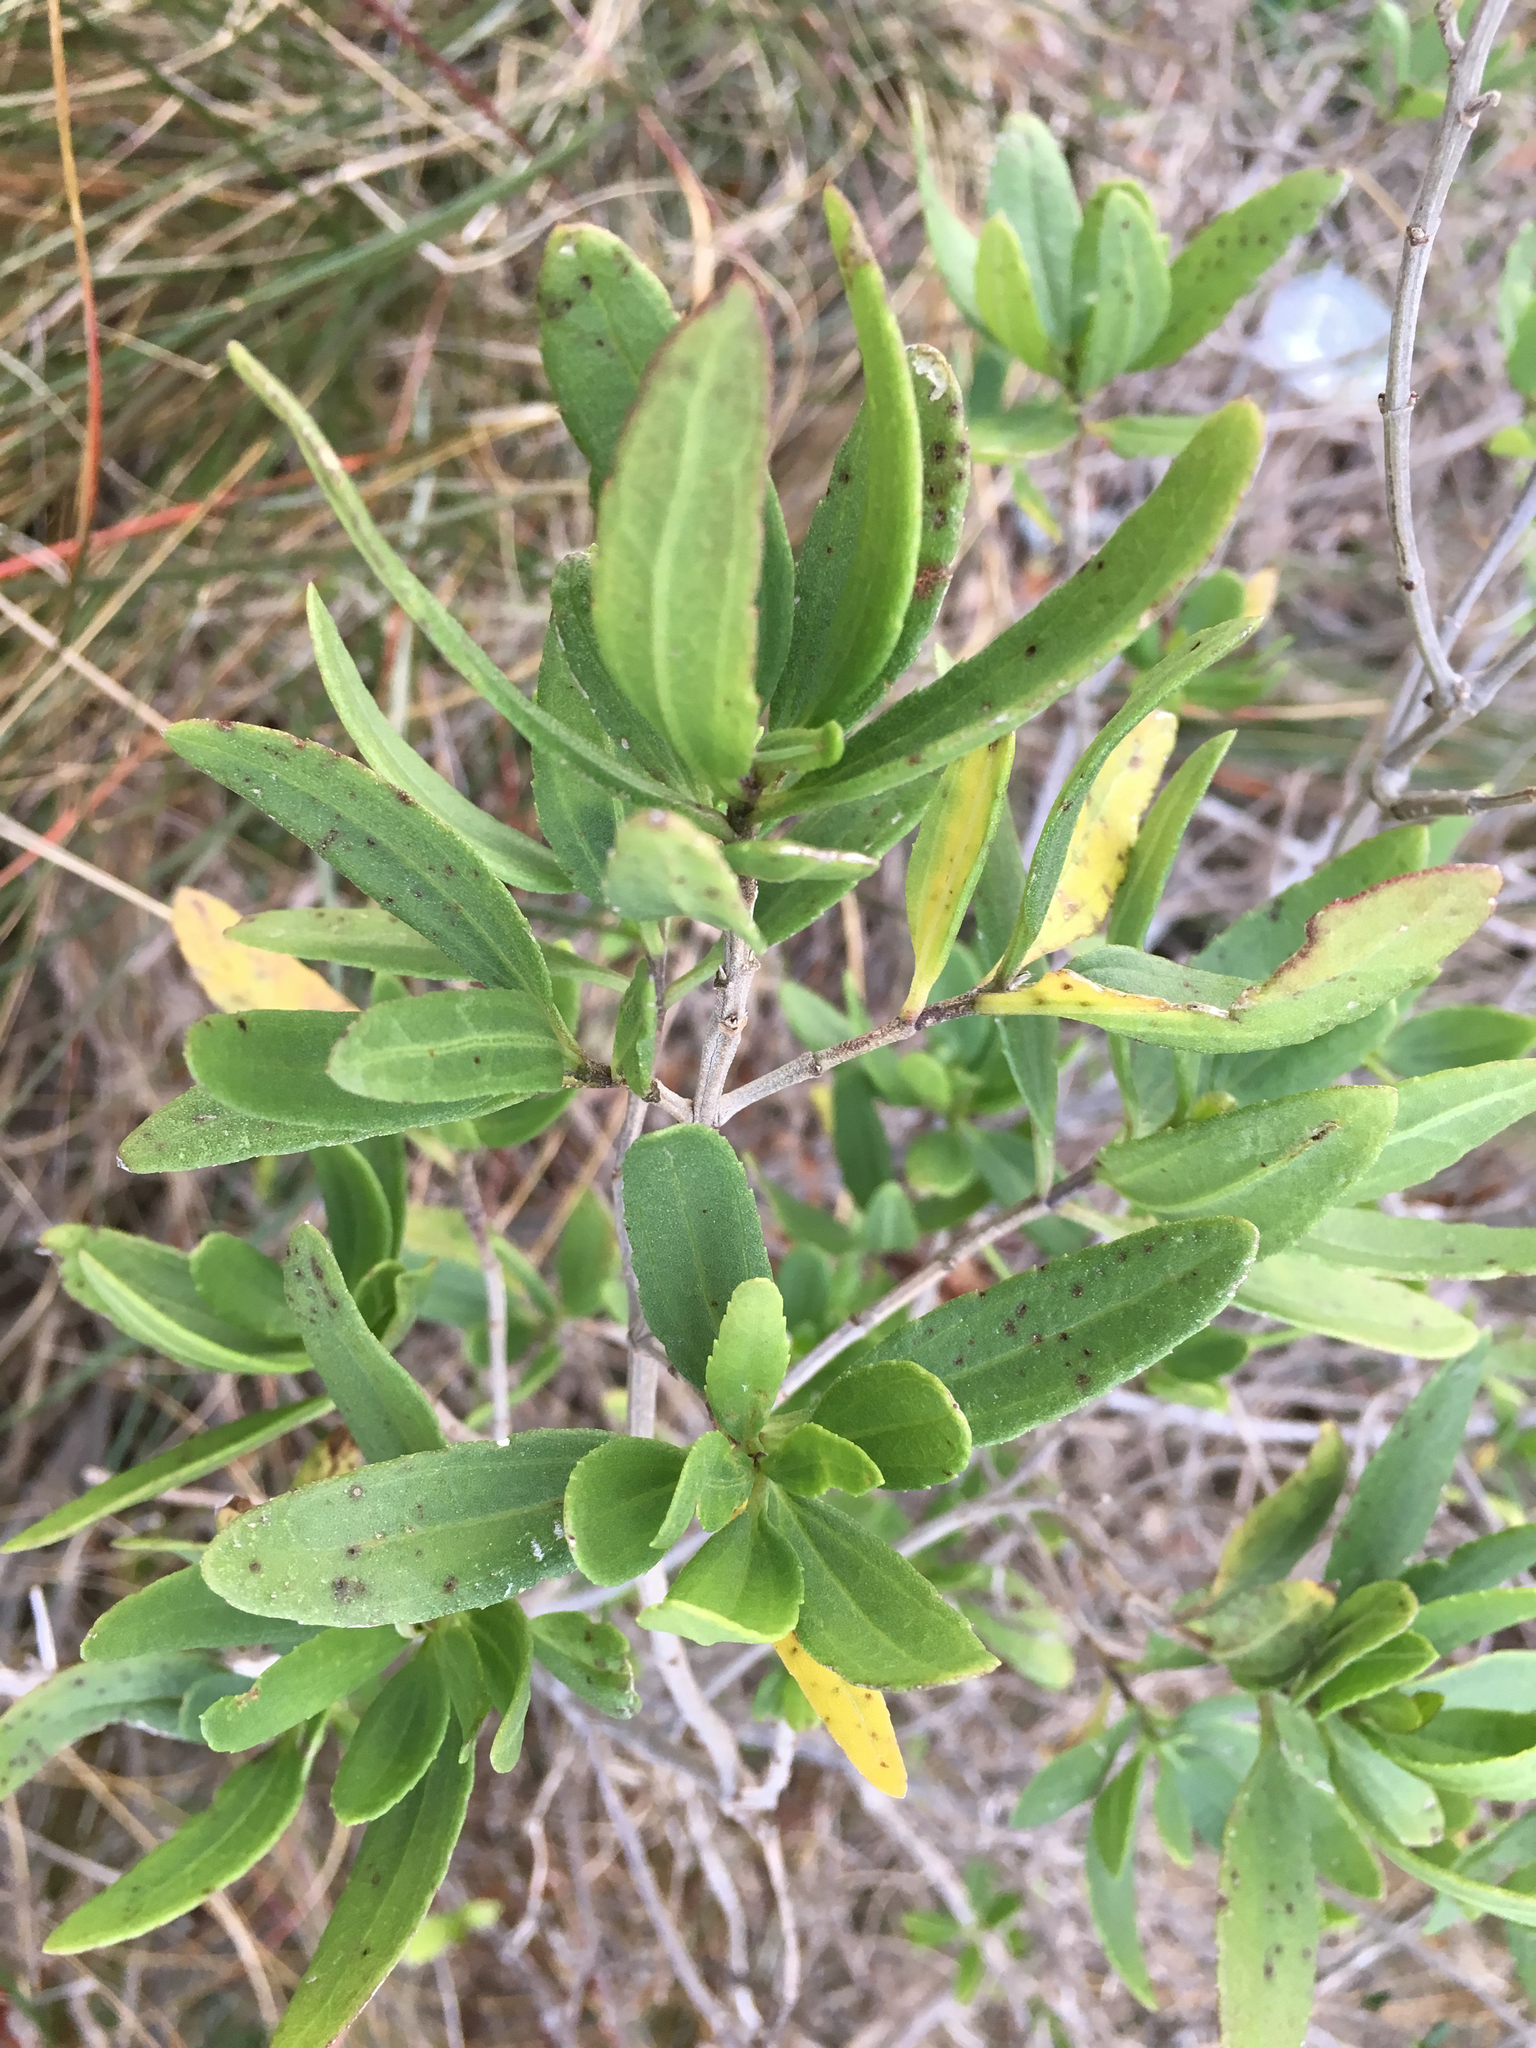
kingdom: Plantae
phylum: Tracheophyta
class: Magnoliopsida
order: Asterales
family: Asteraceae
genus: Iva
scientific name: Iva frutescens
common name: Big-leaved marsh-elder
